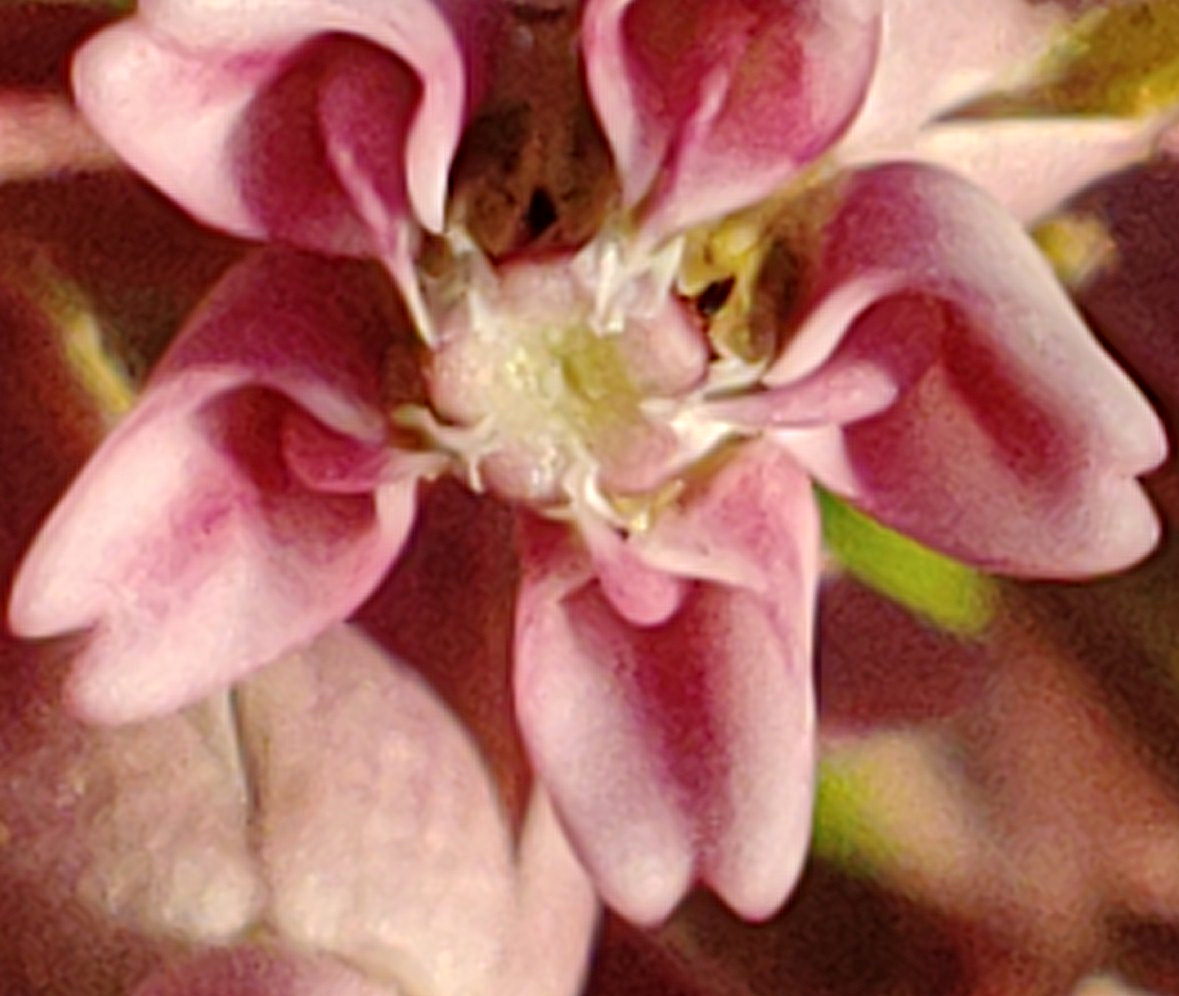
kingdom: Plantae
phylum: Tracheophyta
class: Magnoliopsida
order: Gentianales
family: Apocynaceae
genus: Asclepias
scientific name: Asclepias syriaca
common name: Common milkweed
